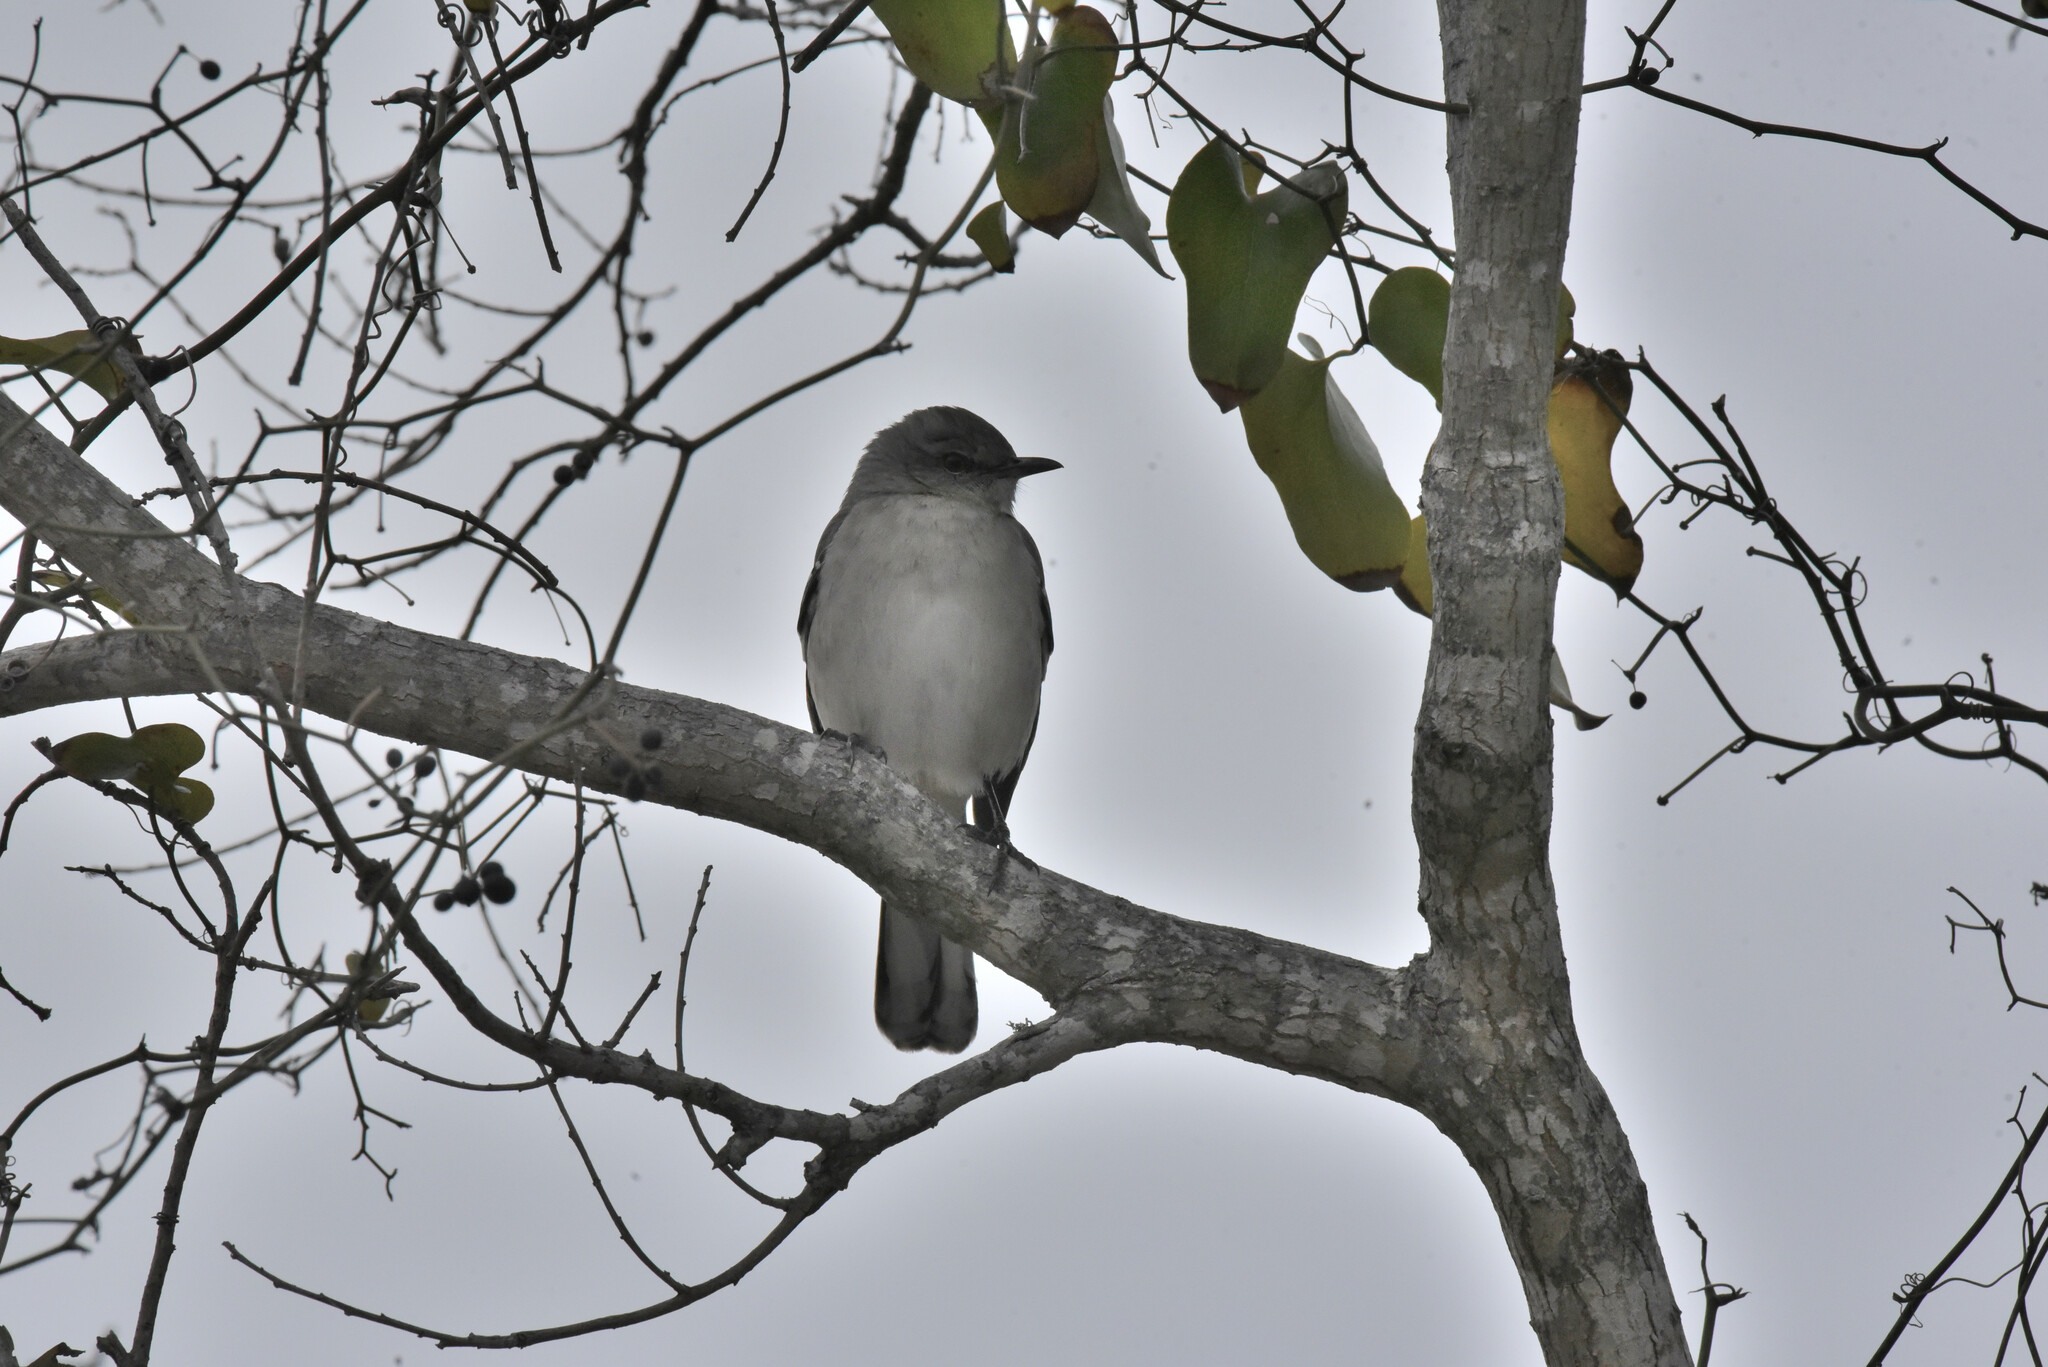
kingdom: Animalia
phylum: Chordata
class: Aves
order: Passeriformes
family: Mimidae
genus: Mimus
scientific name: Mimus polyglottos
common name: Northern mockingbird
